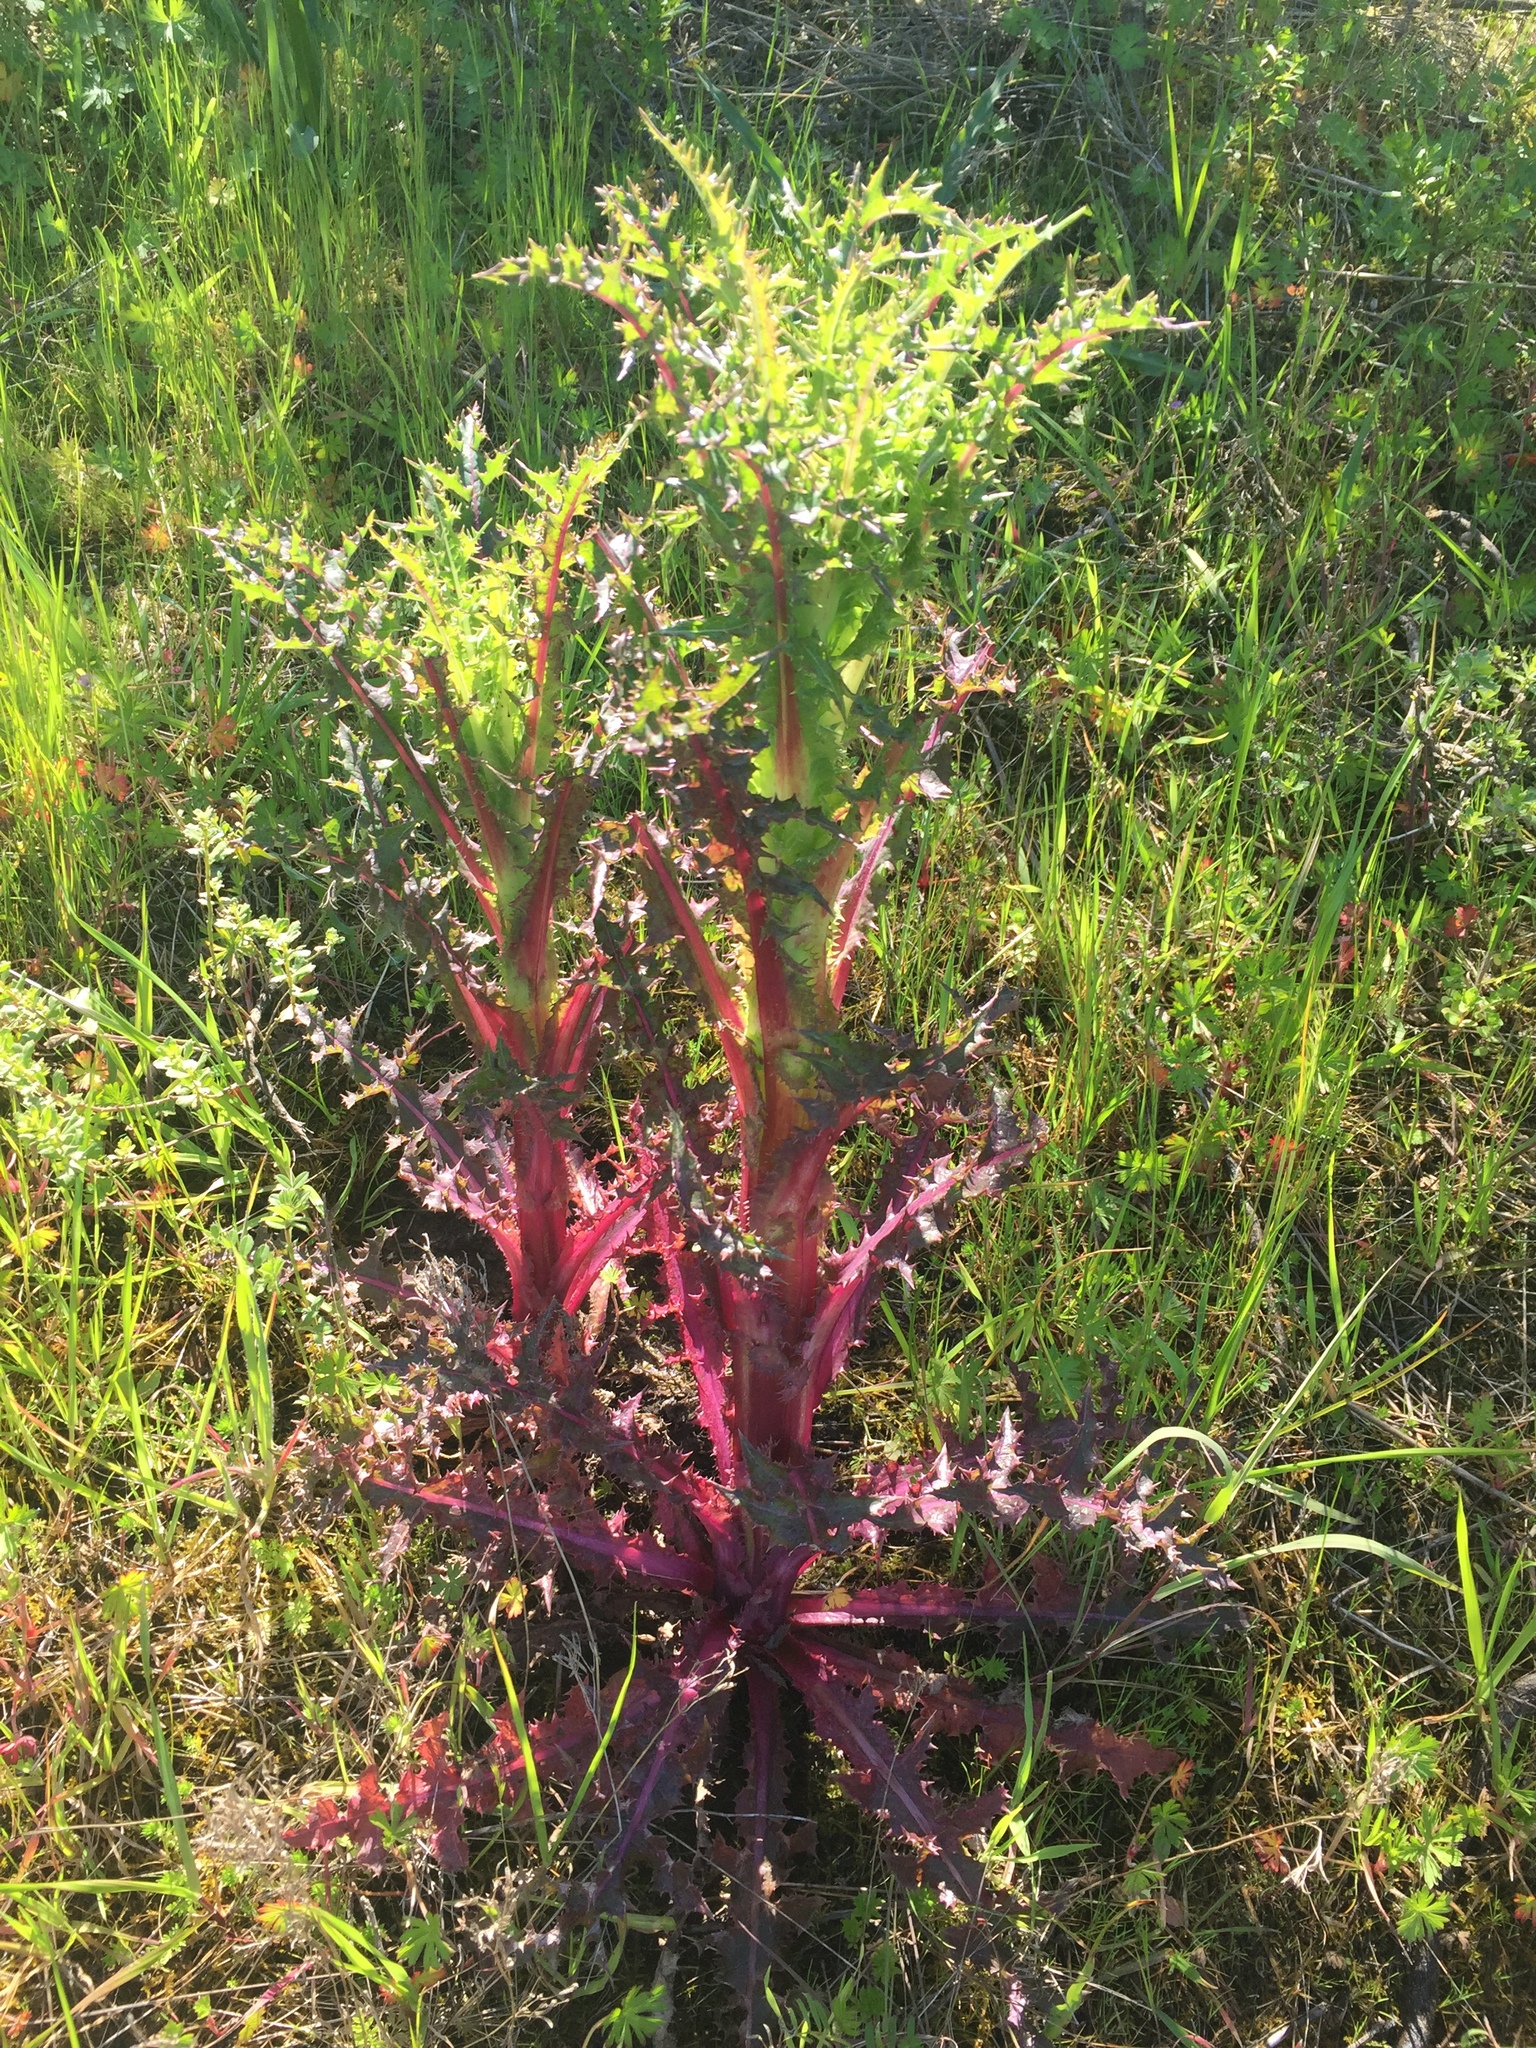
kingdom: Plantae
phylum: Tracheophyta
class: Magnoliopsida
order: Asterales
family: Asteraceae
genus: Sonchus
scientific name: Sonchus asper
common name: Prickly sow-thistle
